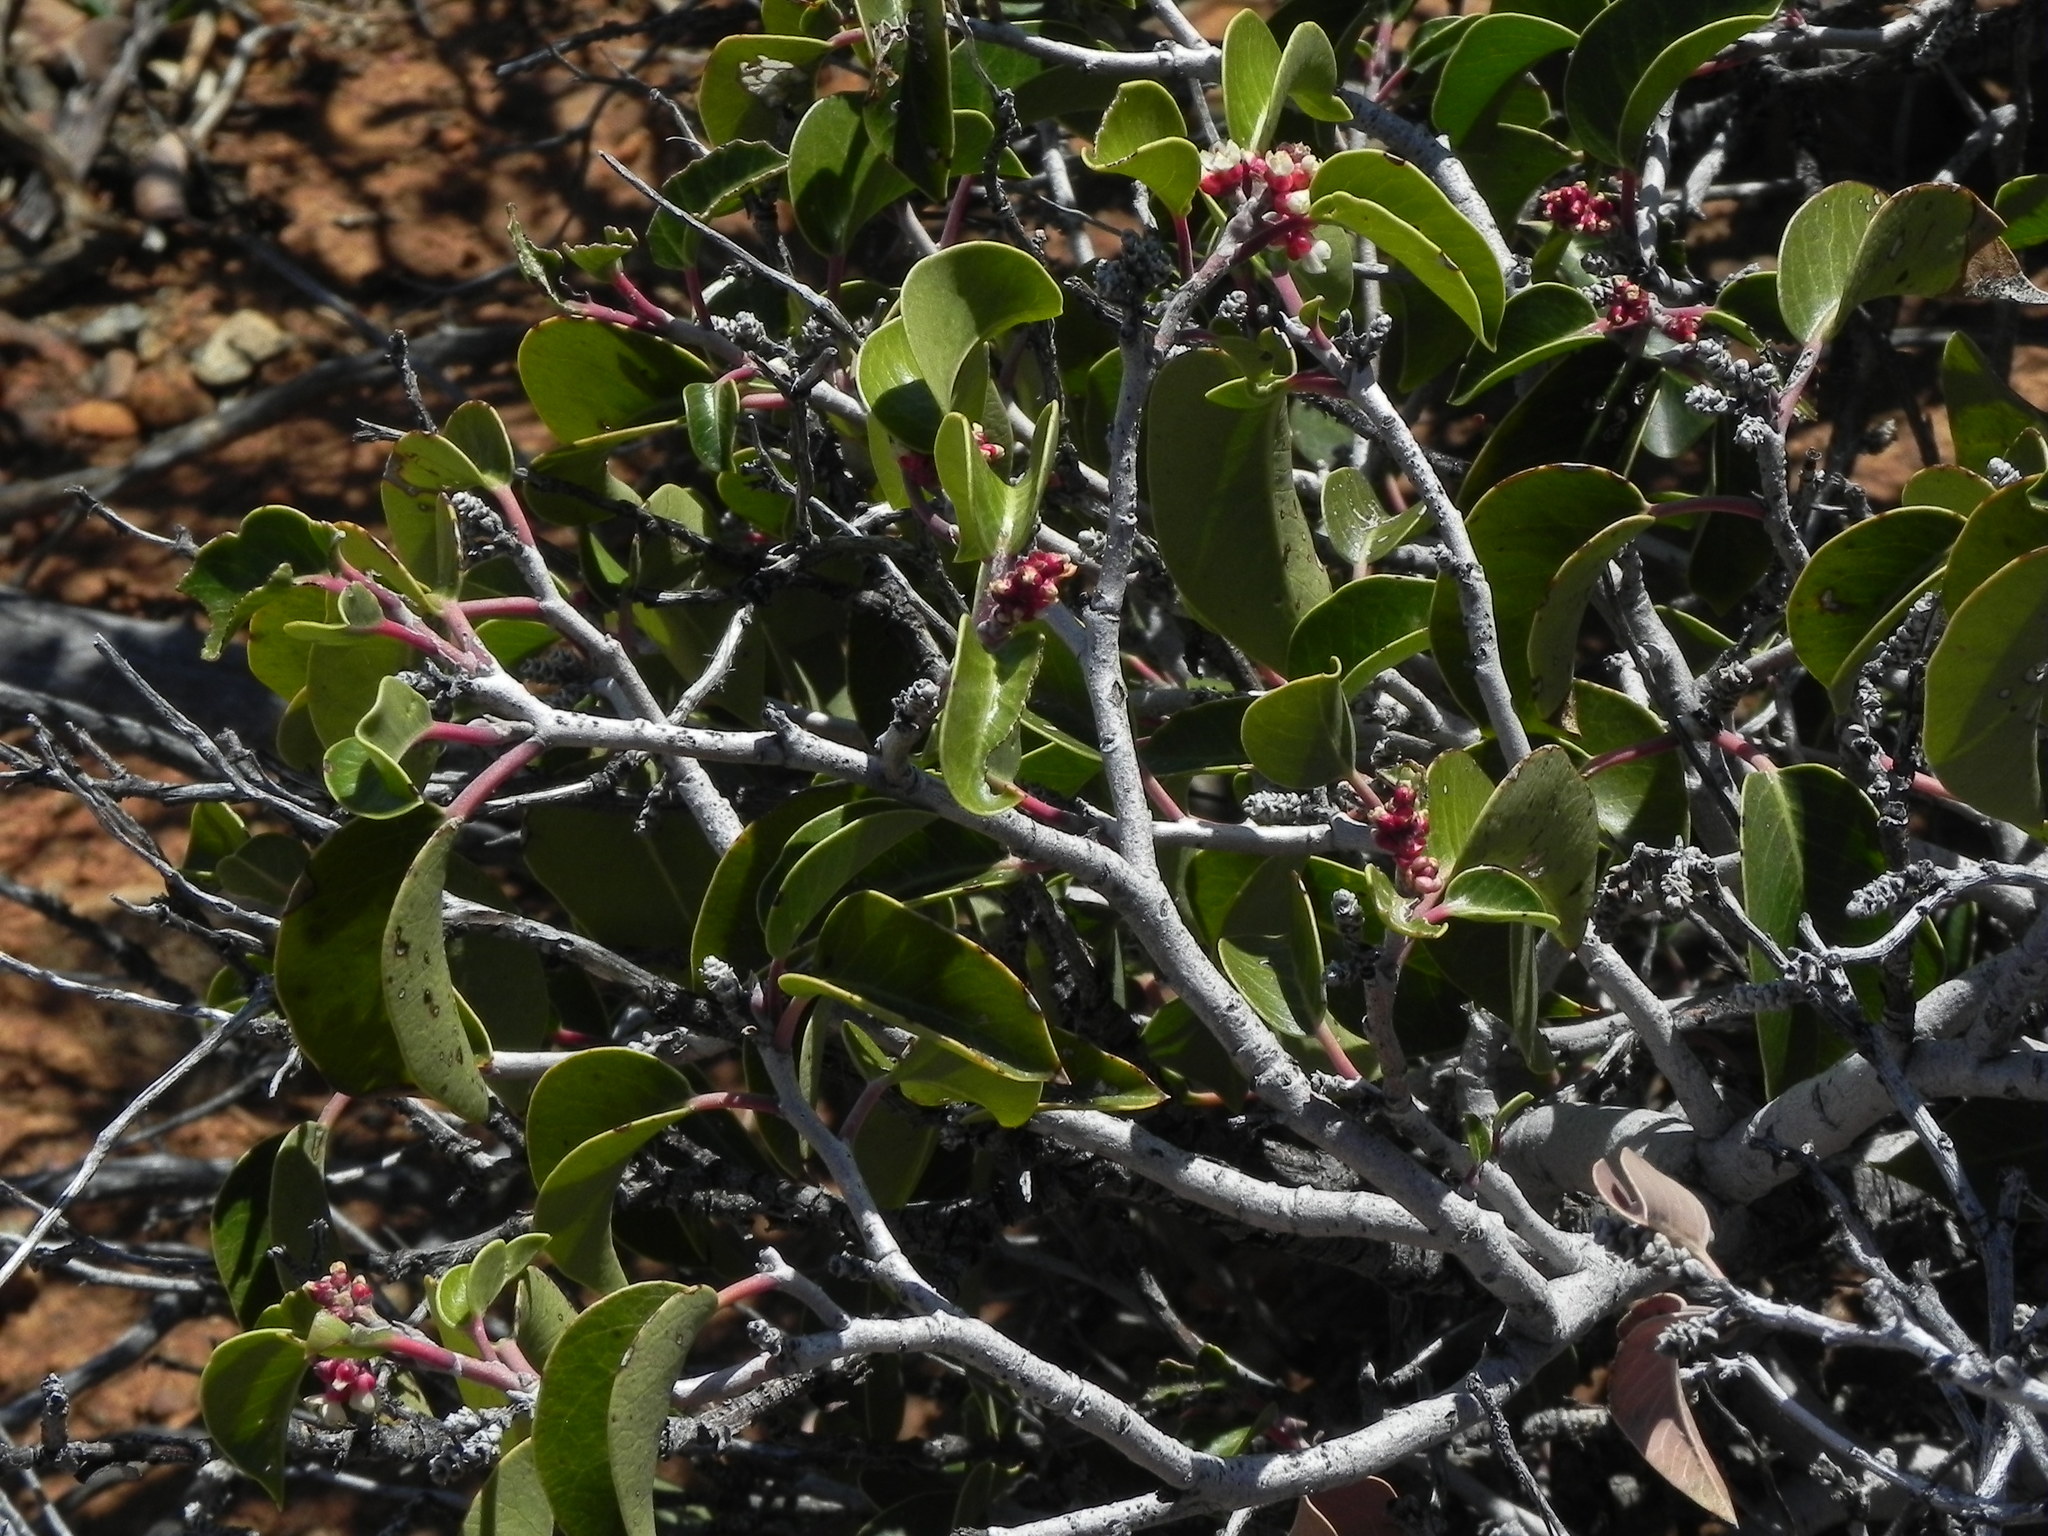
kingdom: Plantae
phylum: Tracheophyta
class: Magnoliopsida
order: Sapindales
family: Anacardiaceae
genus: Rhus
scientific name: Rhus ovata
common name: Sugar sumac
